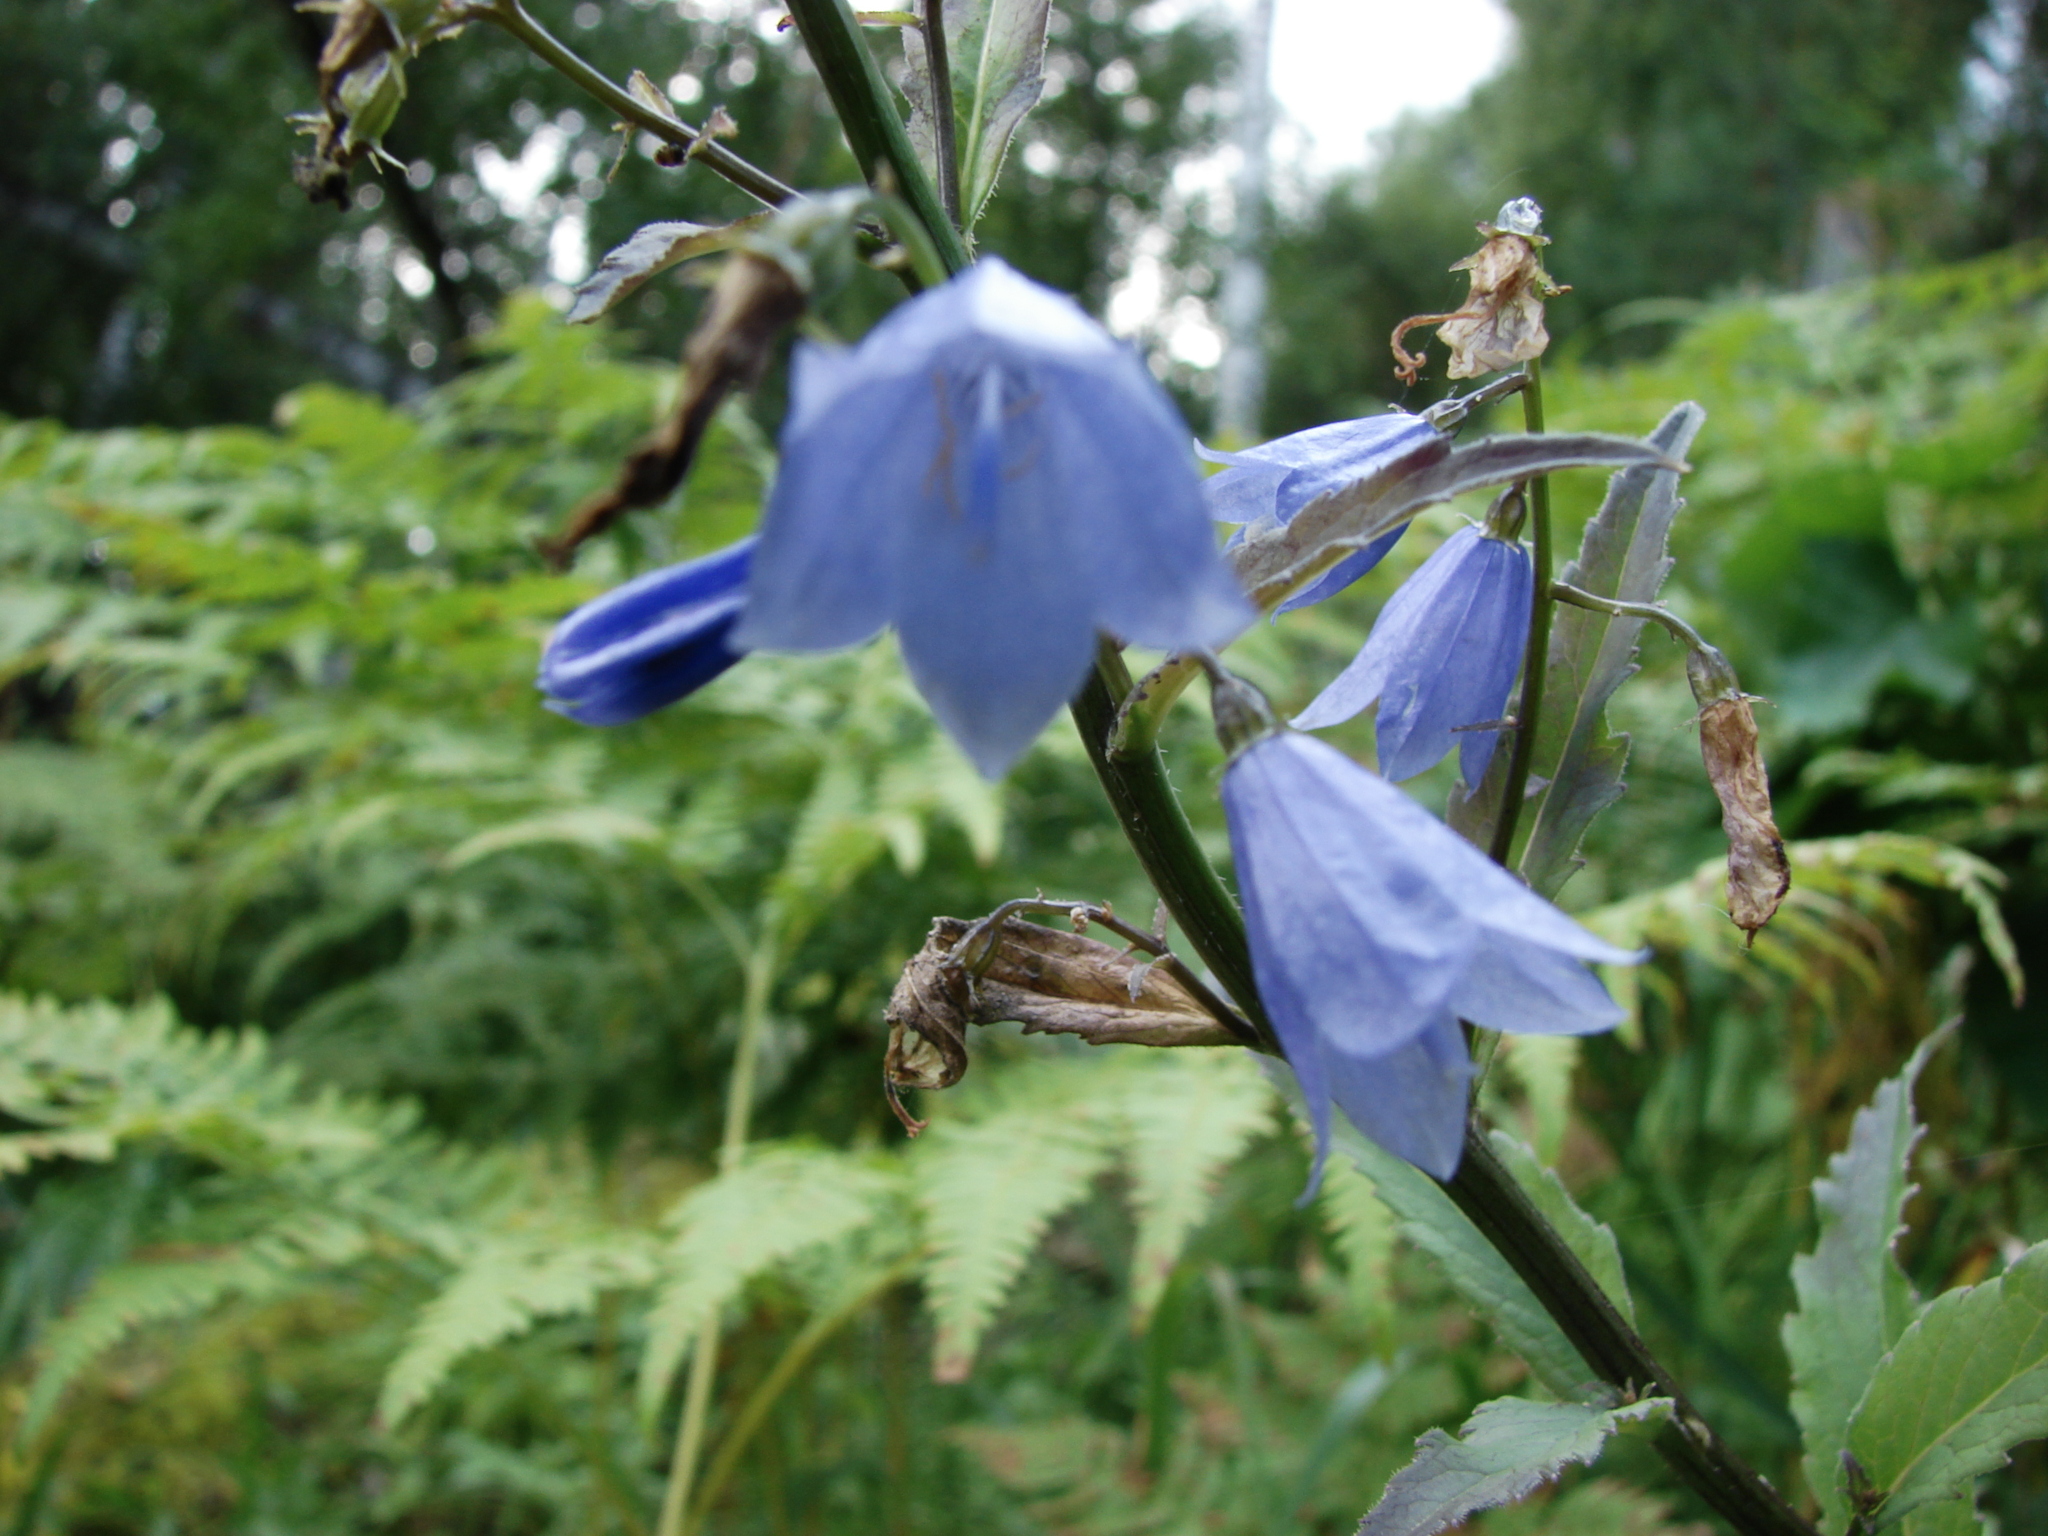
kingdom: Plantae
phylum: Tracheophyta
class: Magnoliopsida
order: Asterales
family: Campanulaceae
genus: Adenophora
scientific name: Adenophora lamarckii
